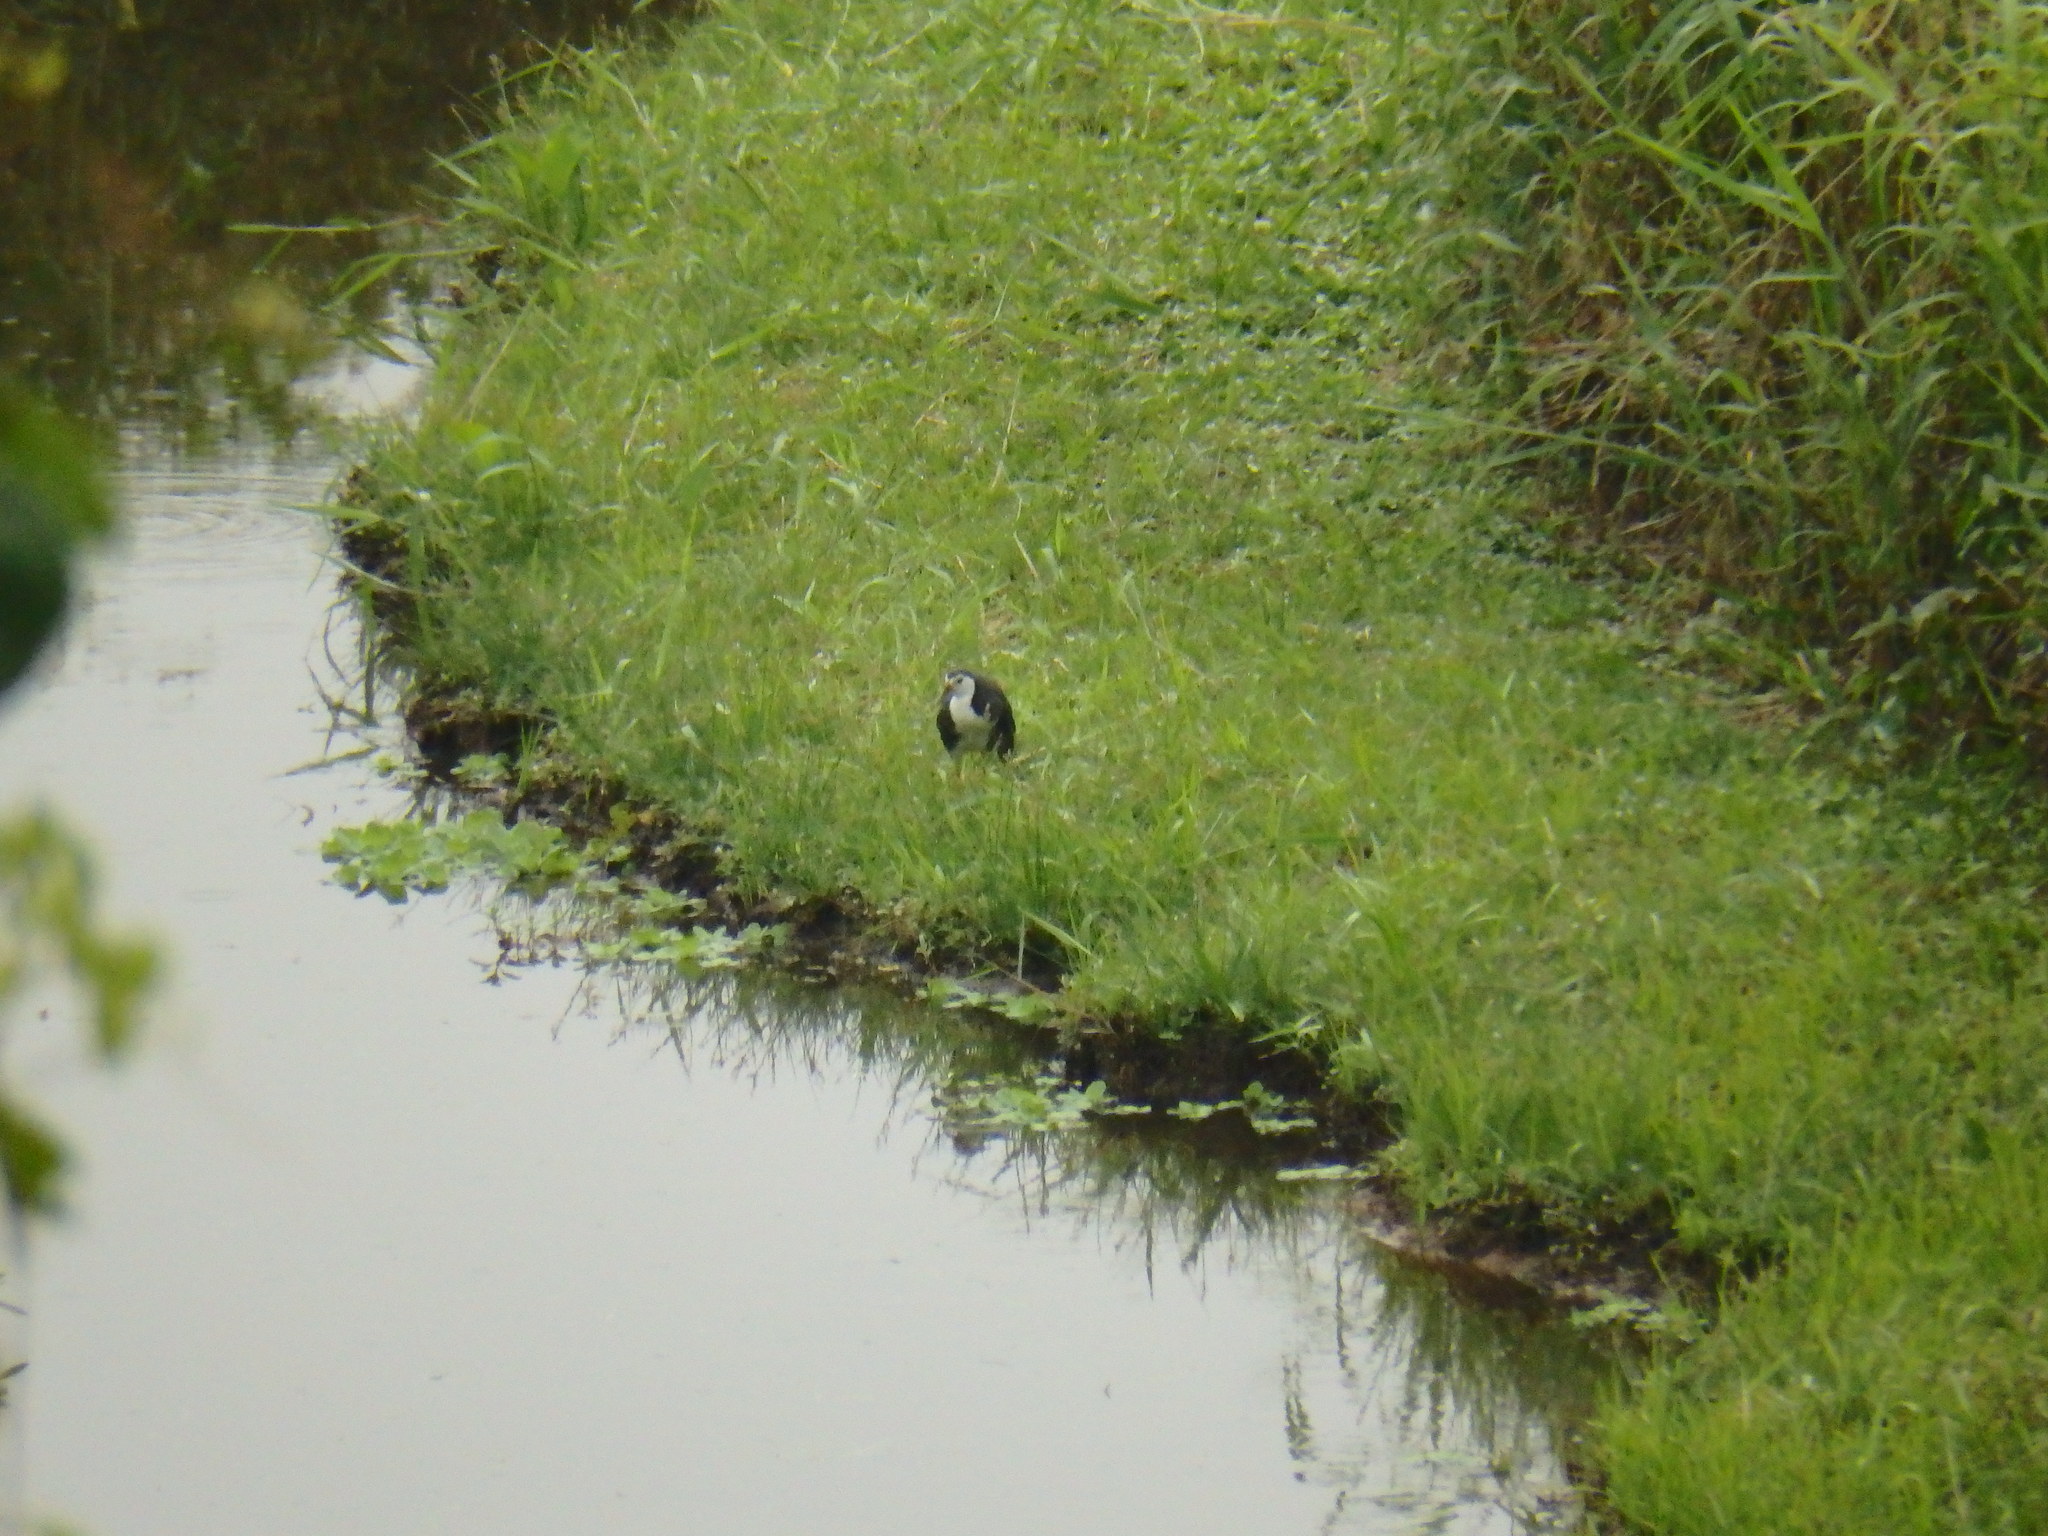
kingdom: Animalia
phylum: Chordata
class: Aves
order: Gruiformes
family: Rallidae
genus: Amaurornis
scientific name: Amaurornis phoenicurus
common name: White-breasted waterhen
